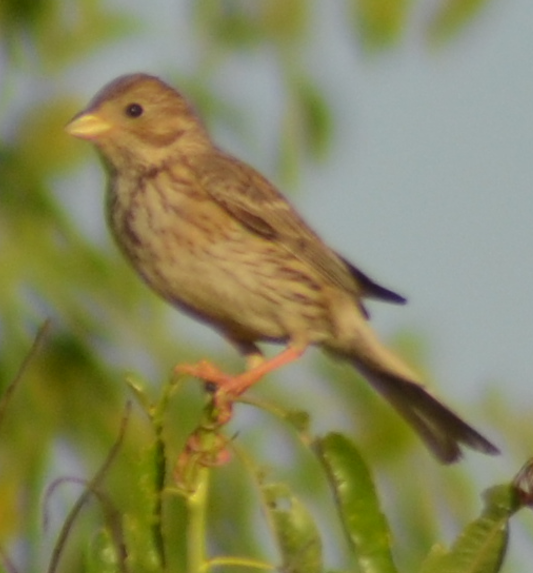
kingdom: Animalia
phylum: Chordata
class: Aves
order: Passeriformes
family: Emberizidae
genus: Emberiza
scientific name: Emberiza calandra
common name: Corn bunting
